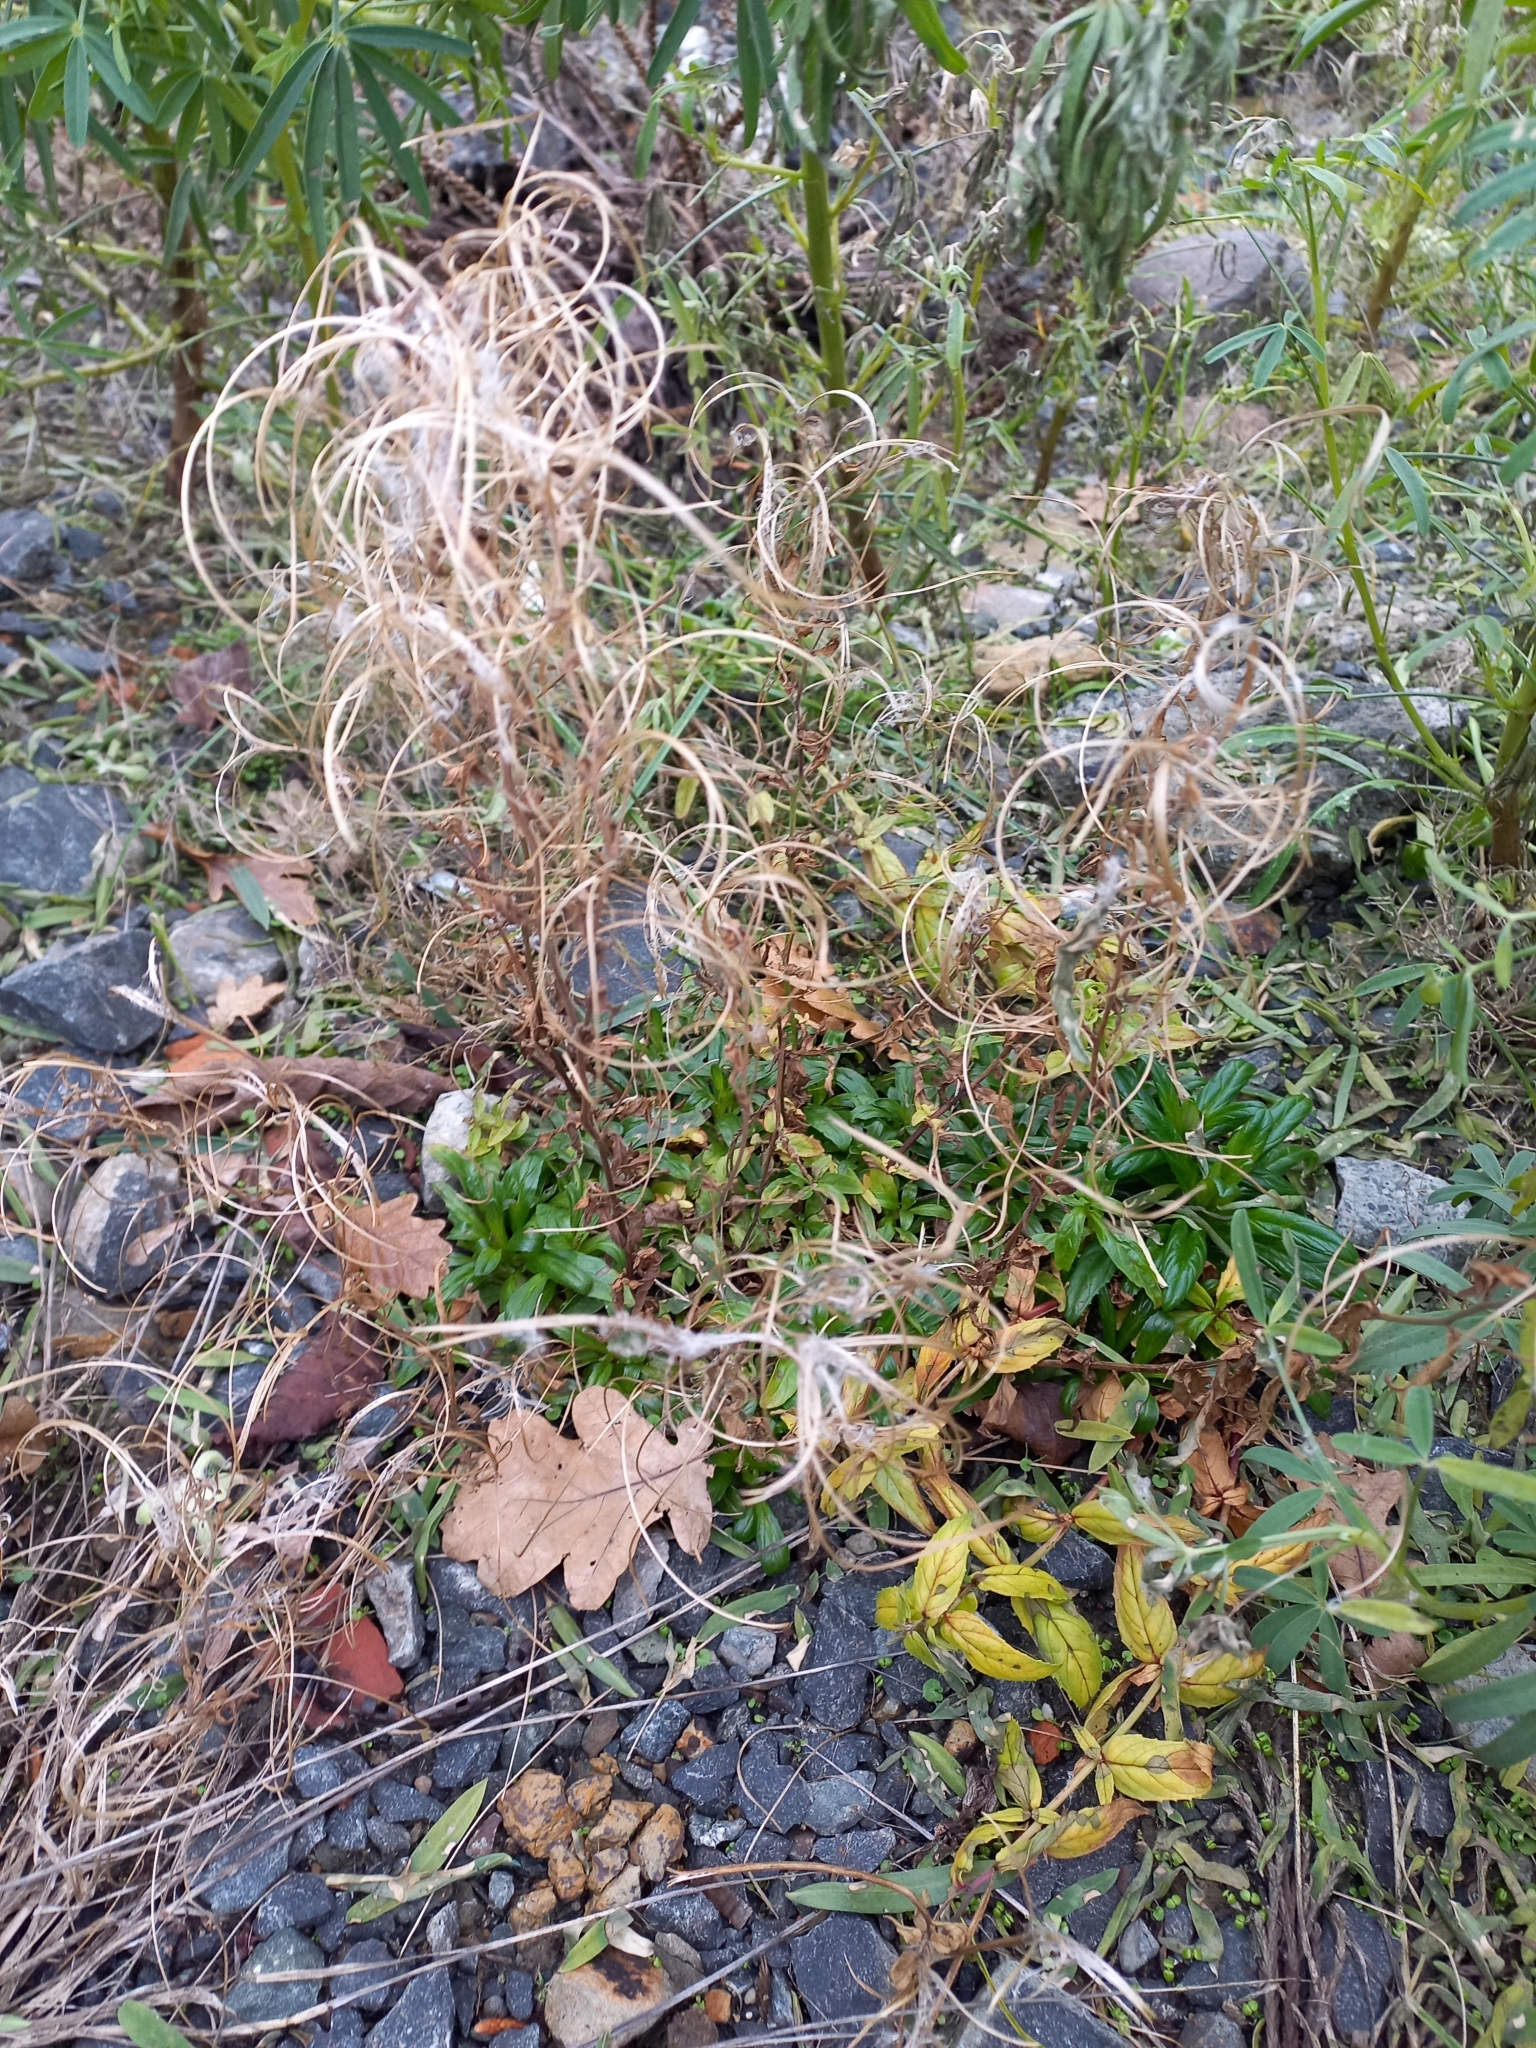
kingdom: Plantae
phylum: Tracheophyta
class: Magnoliopsida
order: Myrtales
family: Onagraceae
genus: Epilobium
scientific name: Epilobium ciliatum
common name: American willowherb
